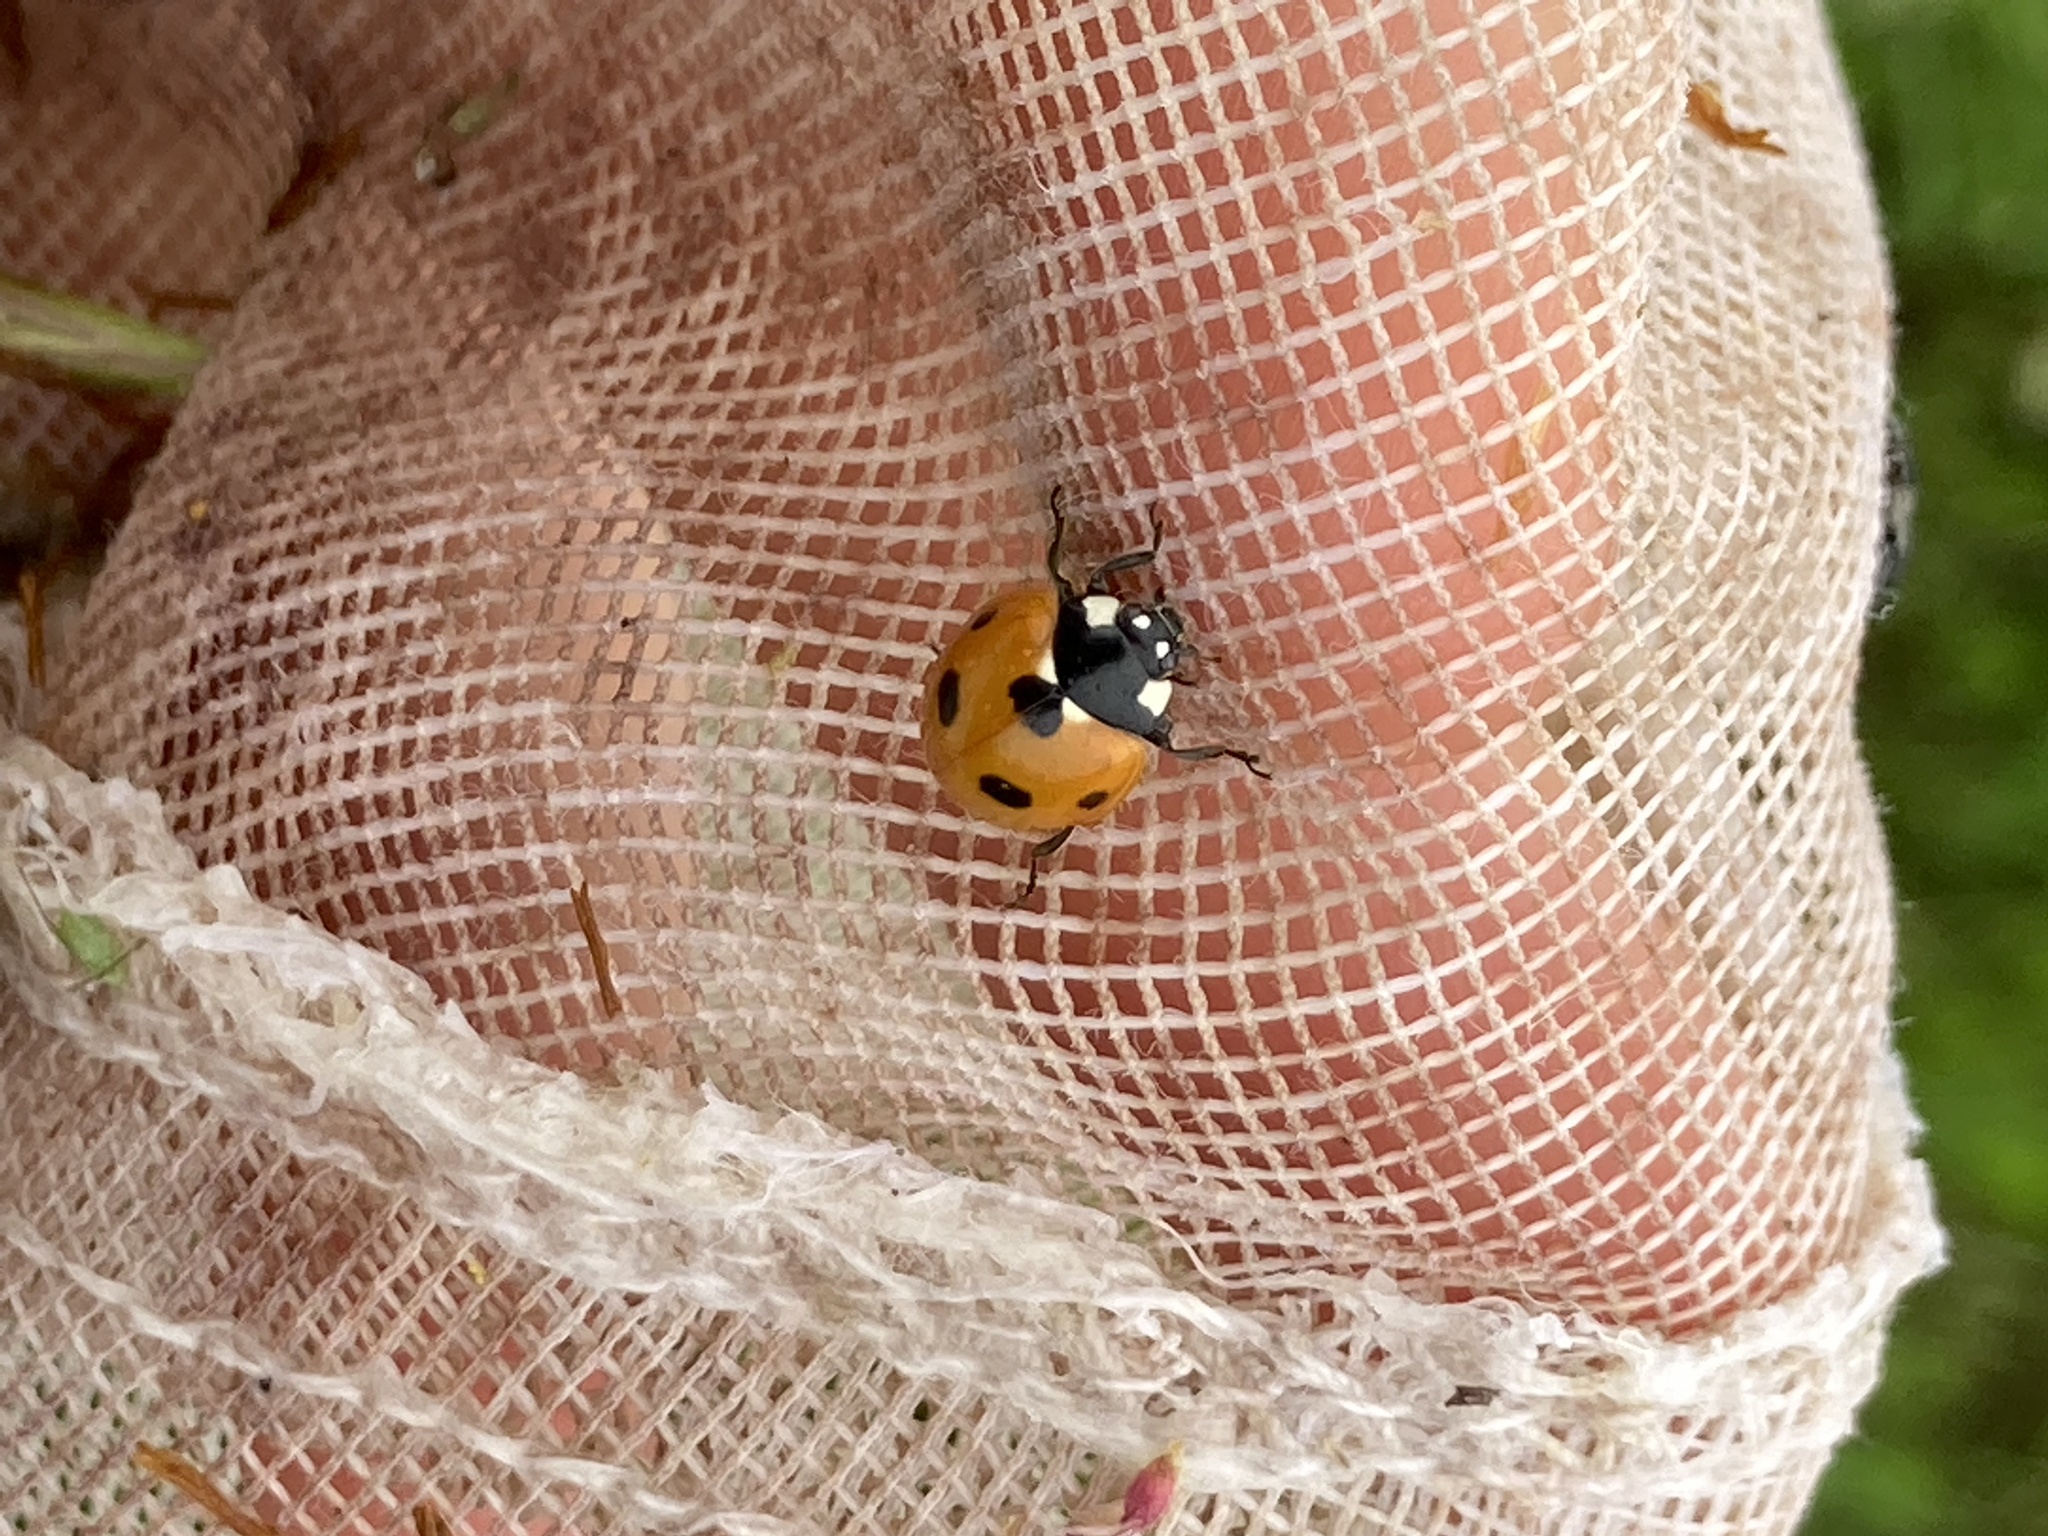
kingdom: Animalia
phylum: Arthropoda
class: Insecta
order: Coleoptera
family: Coccinellidae
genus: Coccinella
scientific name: Coccinella septempunctata
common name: Sevenspotted lady beetle
